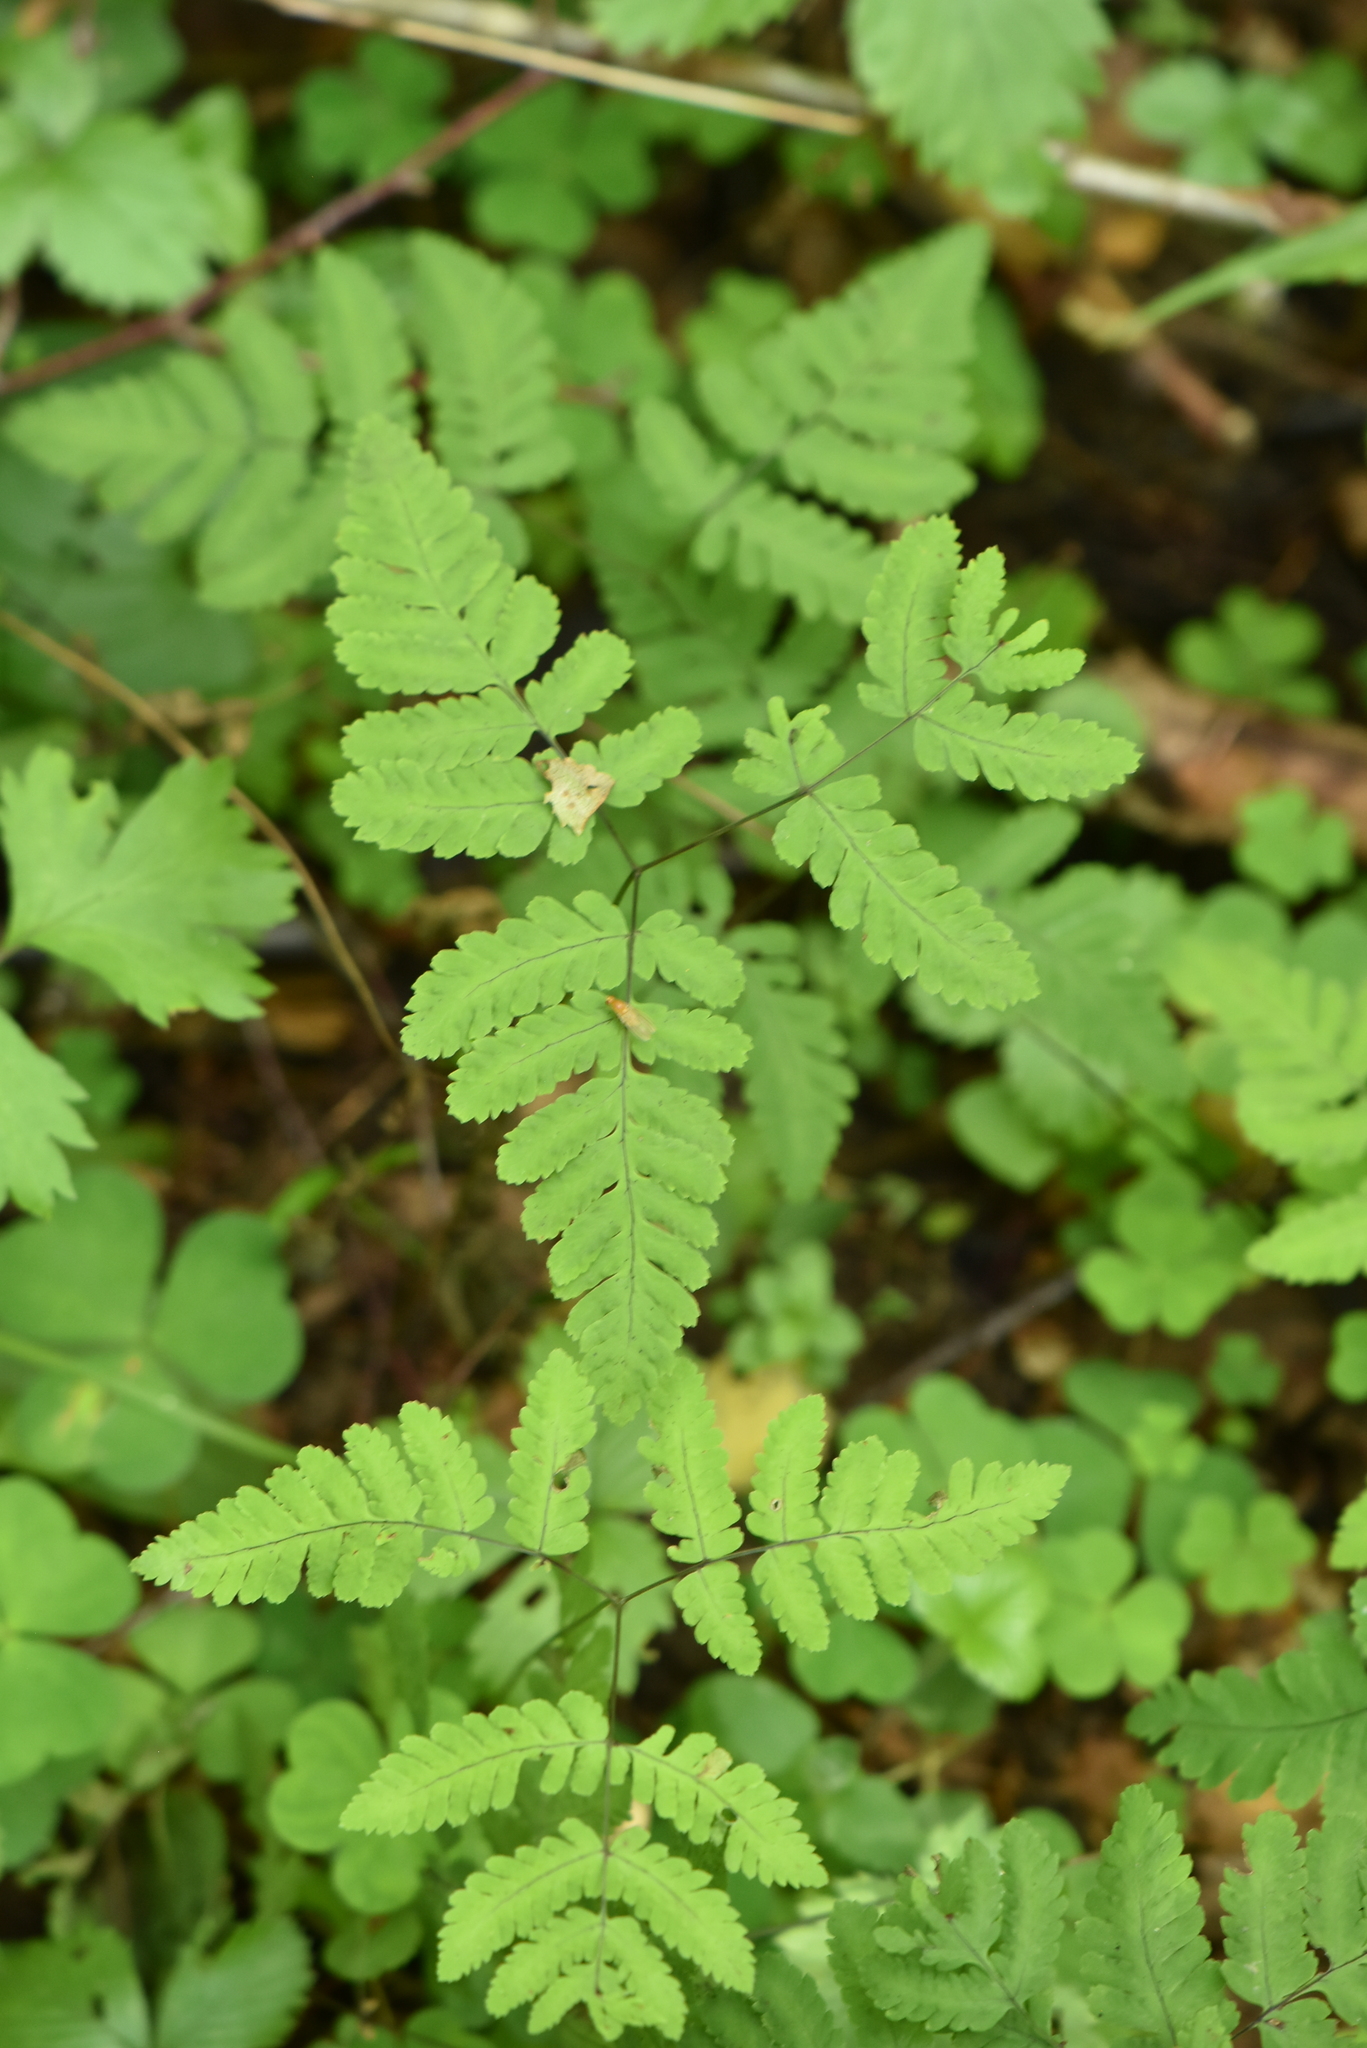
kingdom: Plantae
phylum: Tracheophyta
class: Polypodiopsida
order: Polypodiales
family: Cystopteridaceae
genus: Gymnocarpium
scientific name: Gymnocarpium dryopteris
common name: Oak fern
